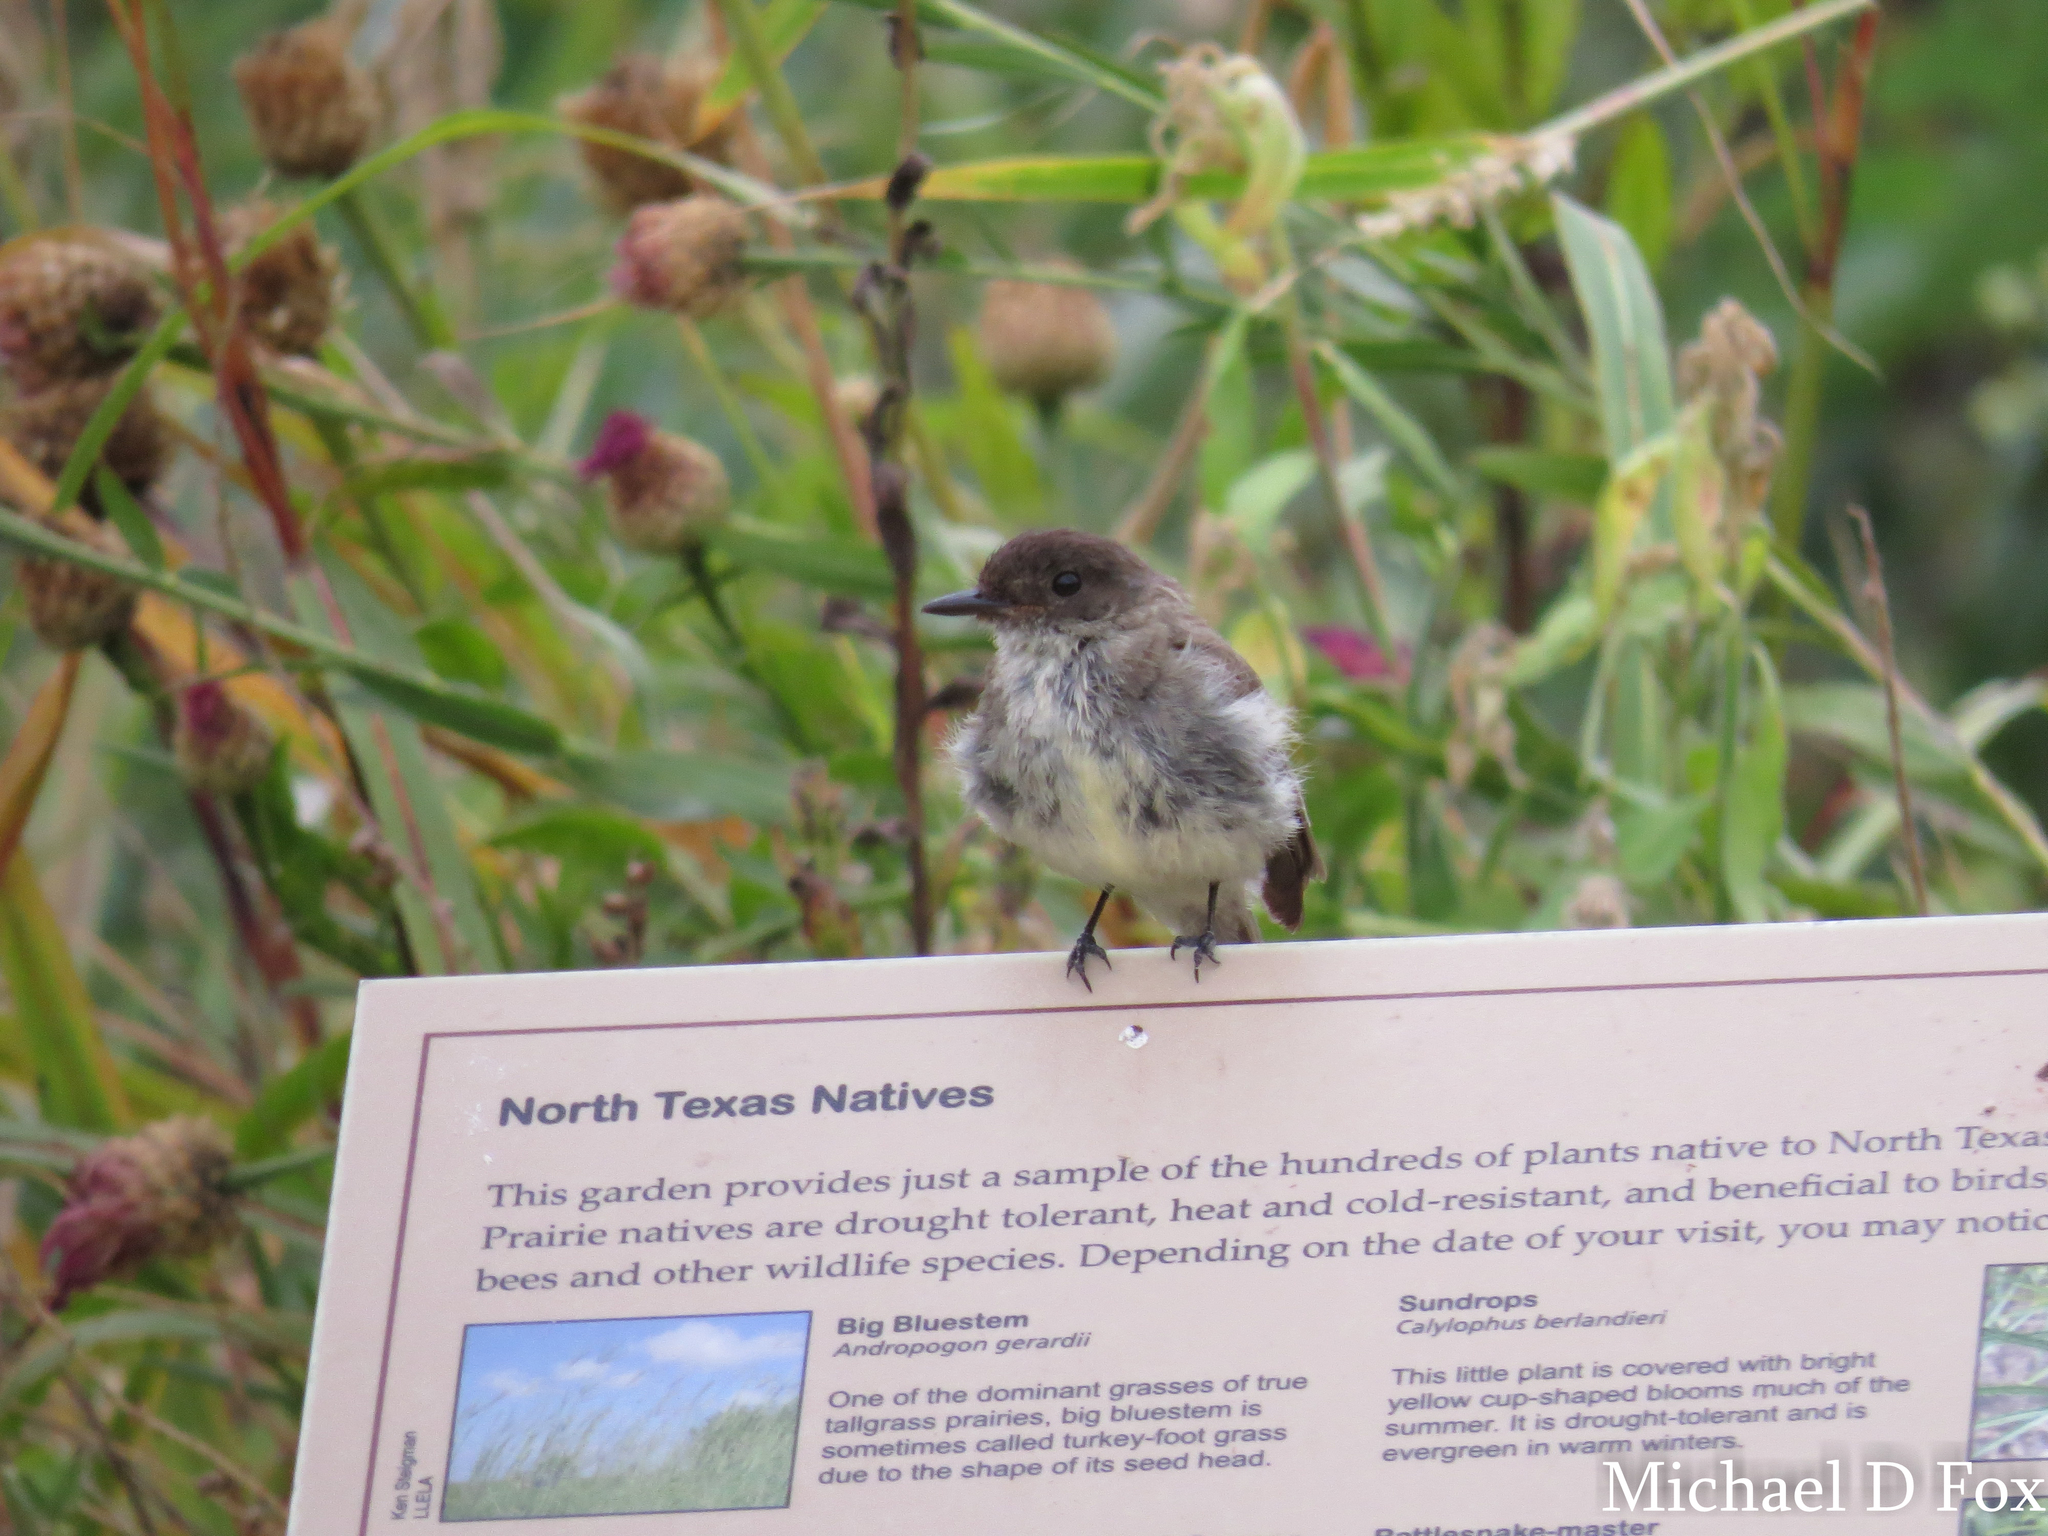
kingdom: Animalia
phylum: Chordata
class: Aves
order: Passeriformes
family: Tyrannidae
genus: Sayornis
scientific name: Sayornis phoebe
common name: Eastern phoebe
